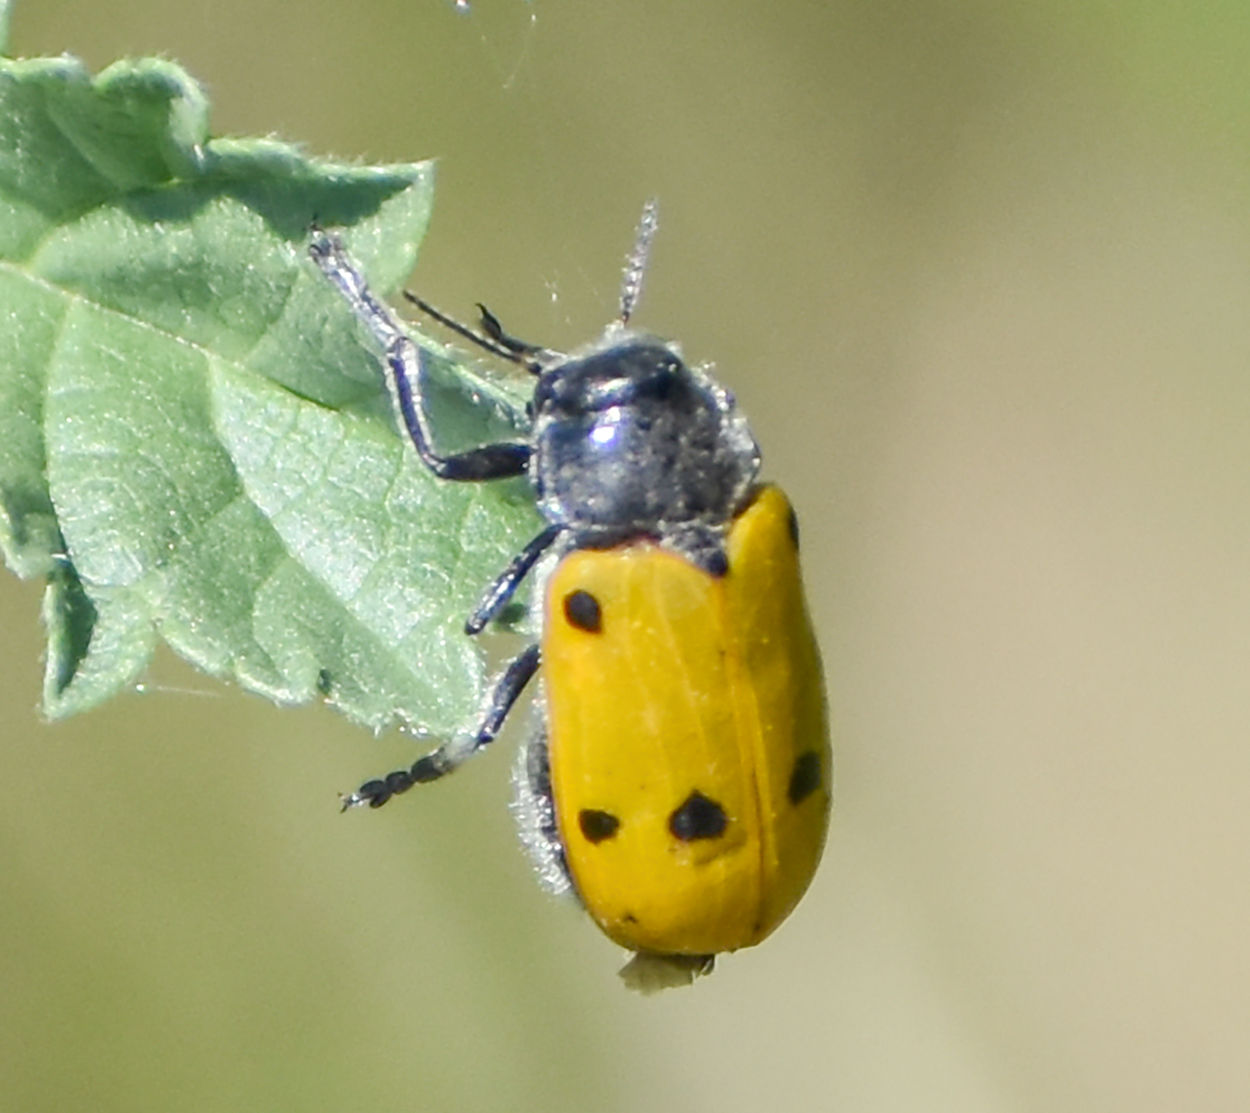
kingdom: Animalia
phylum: Arthropoda
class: Insecta
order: Coleoptera
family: Chrysomelidae
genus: Lachnaia
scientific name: Lachnaia italica
